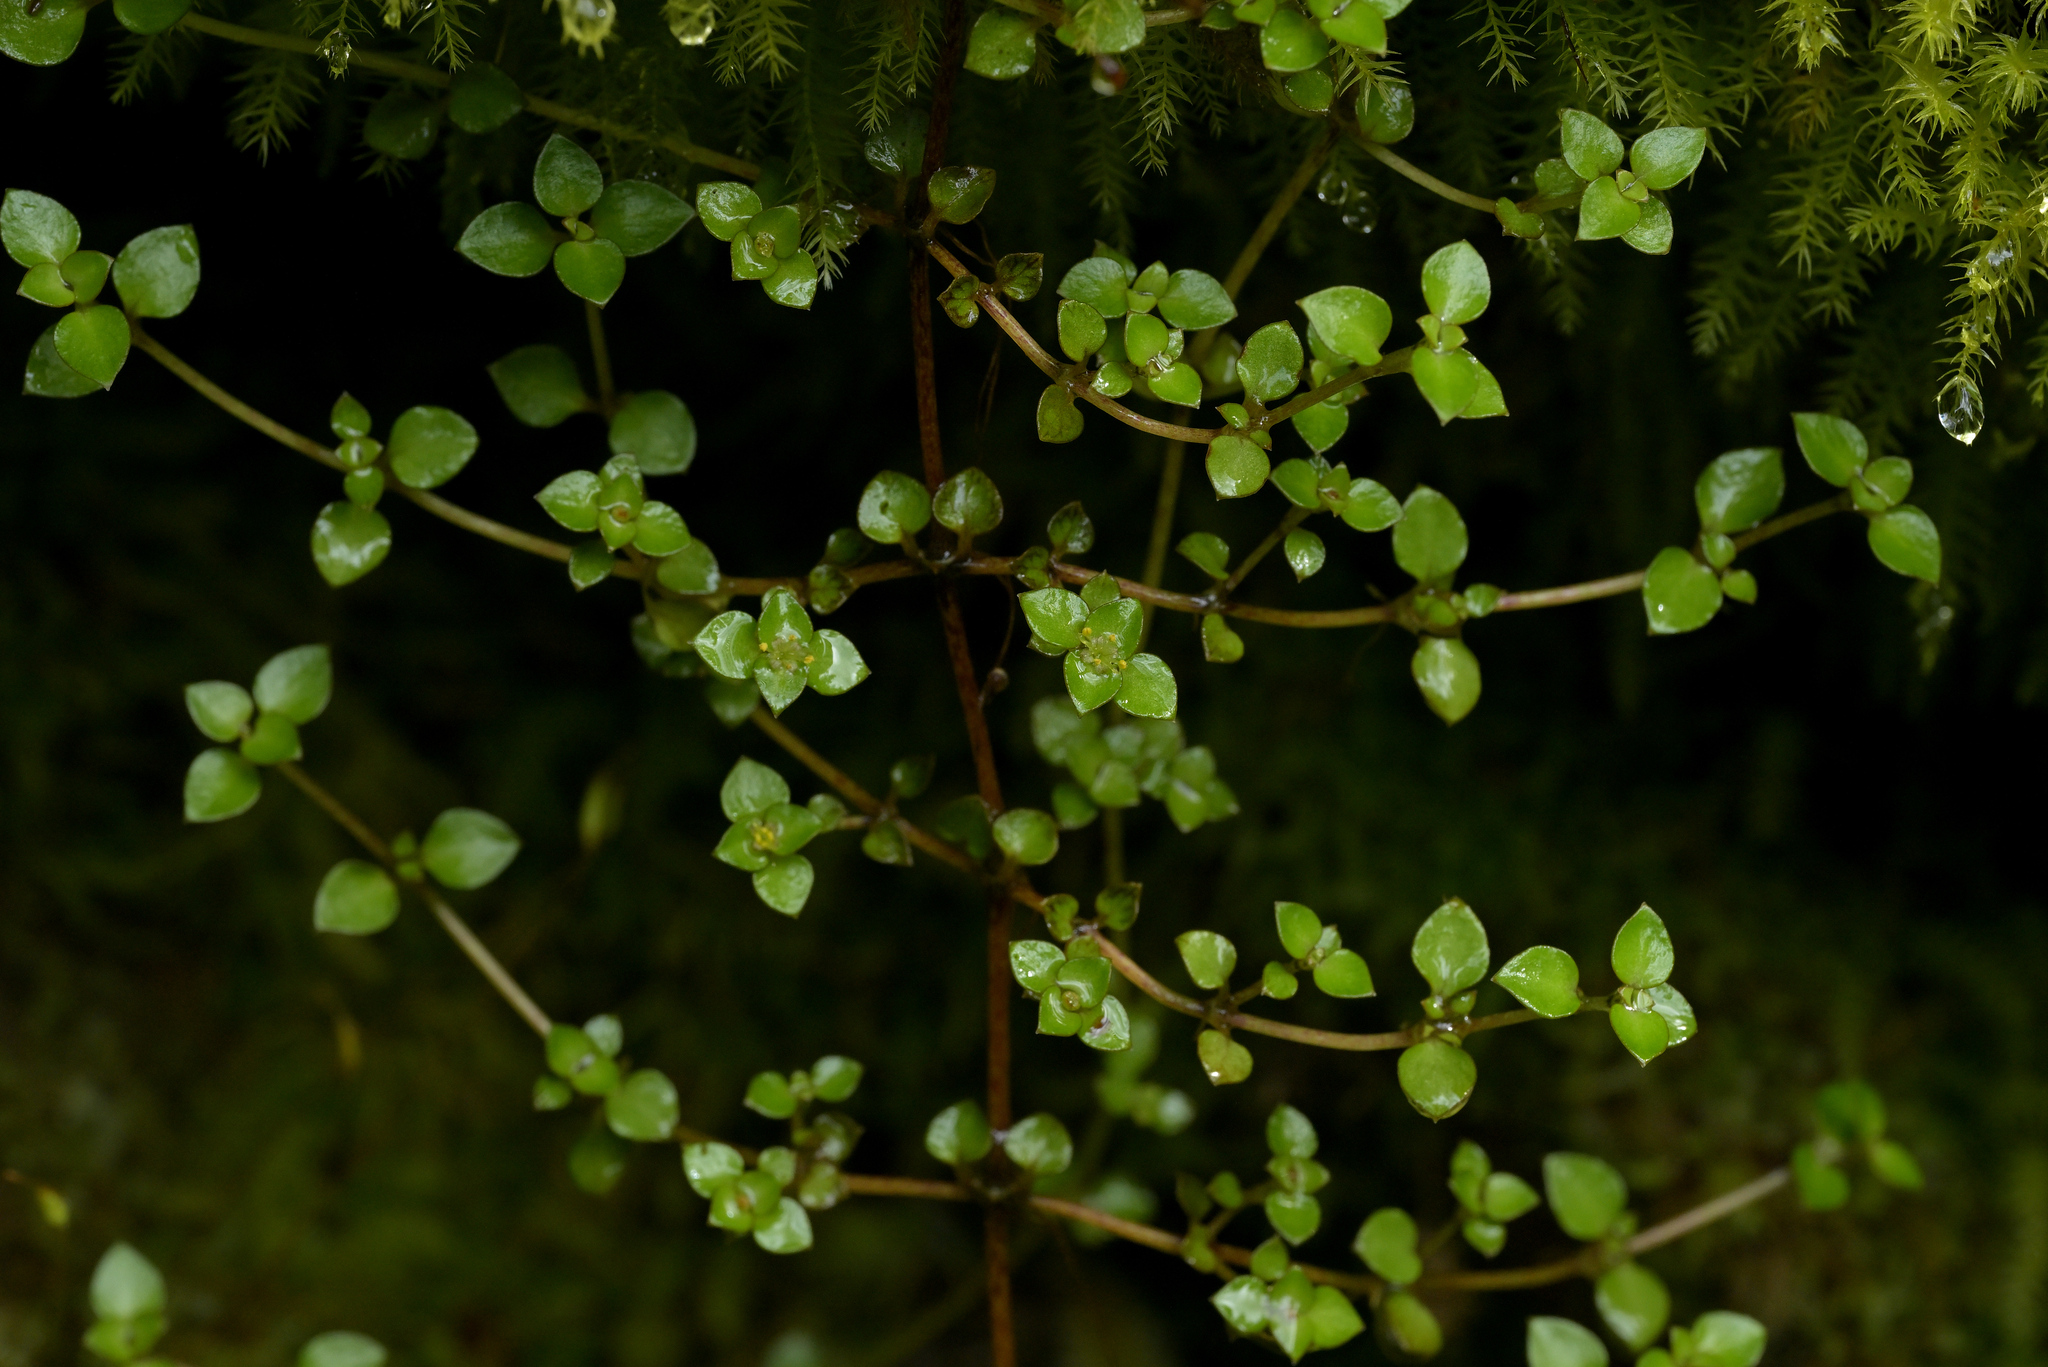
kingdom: Plantae
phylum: Tracheophyta
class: Magnoliopsida
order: Gentianales
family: Rubiaceae
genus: Nertera
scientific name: Nertera granadensis
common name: Beadplant
